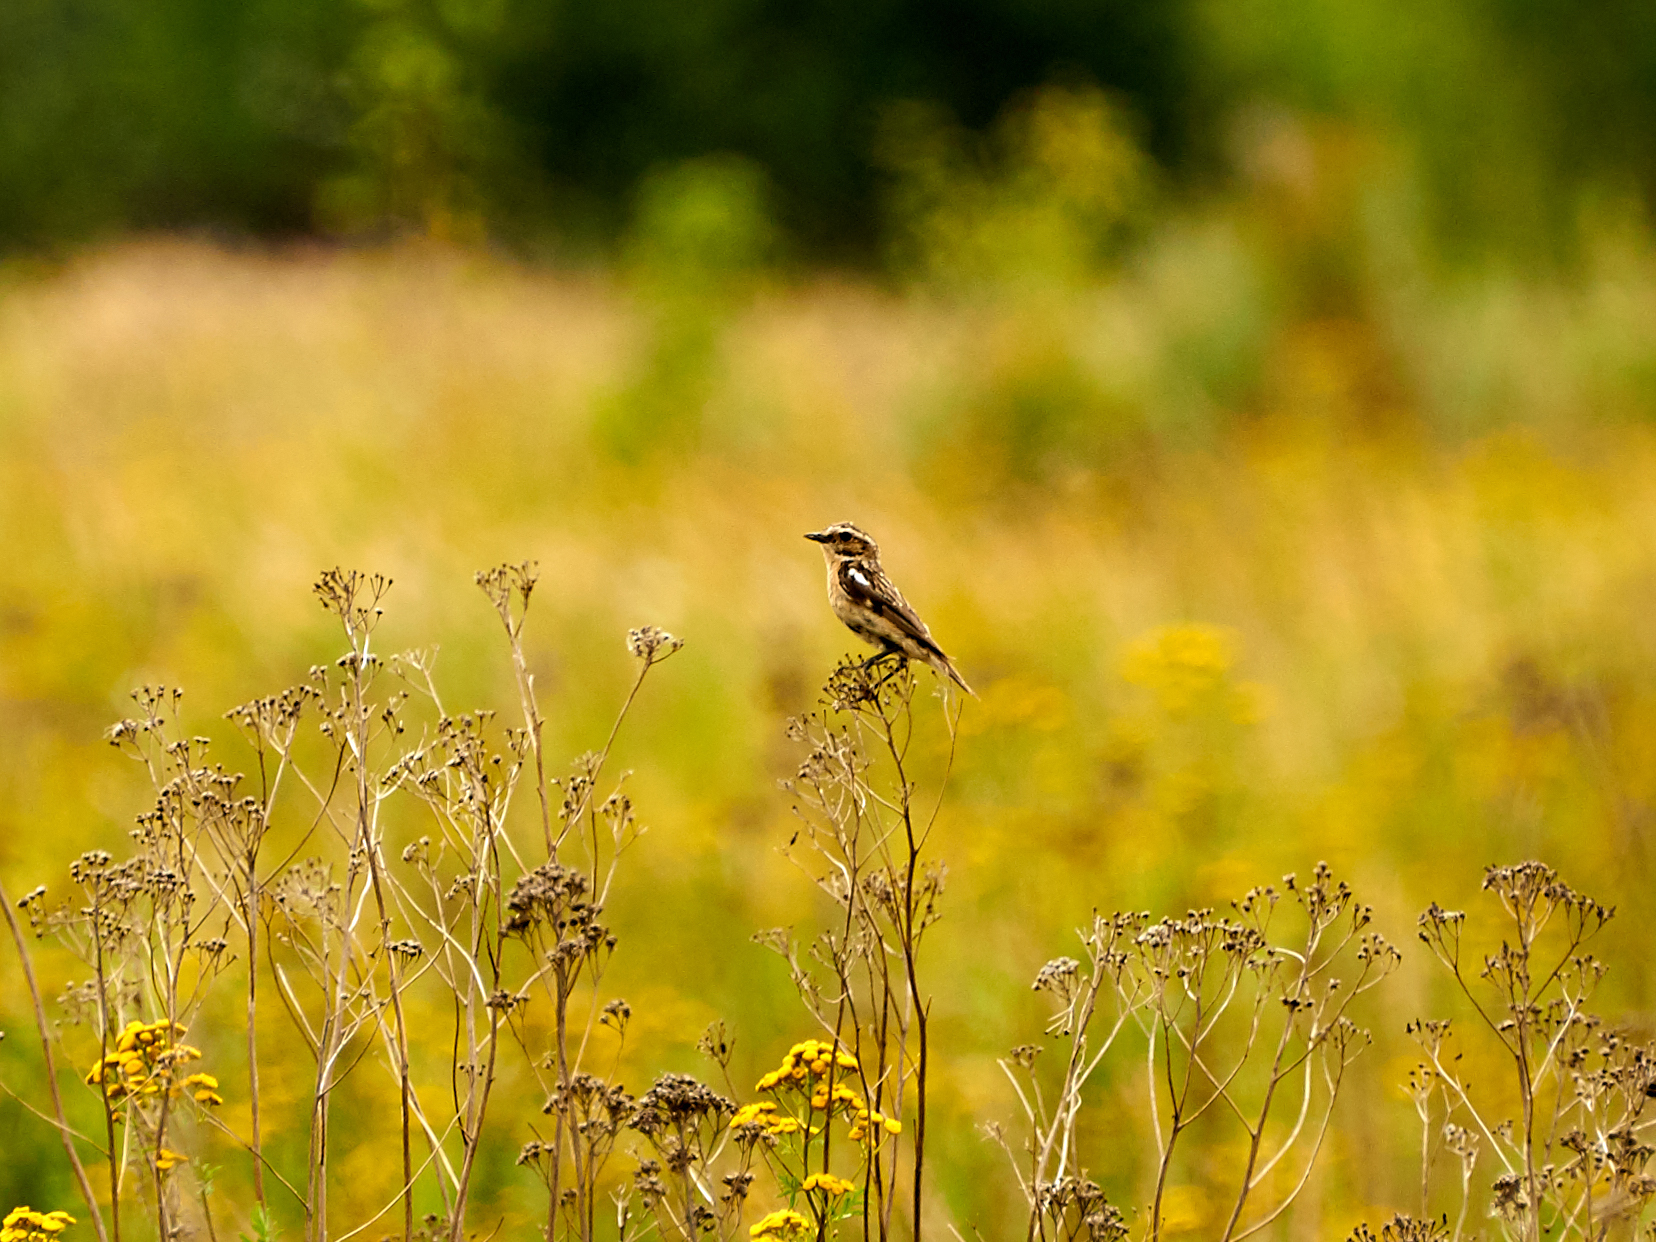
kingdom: Animalia
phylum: Chordata
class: Aves
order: Passeriformes
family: Muscicapidae
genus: Saxicola
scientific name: Saxicola rubetra
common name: Whinchat
